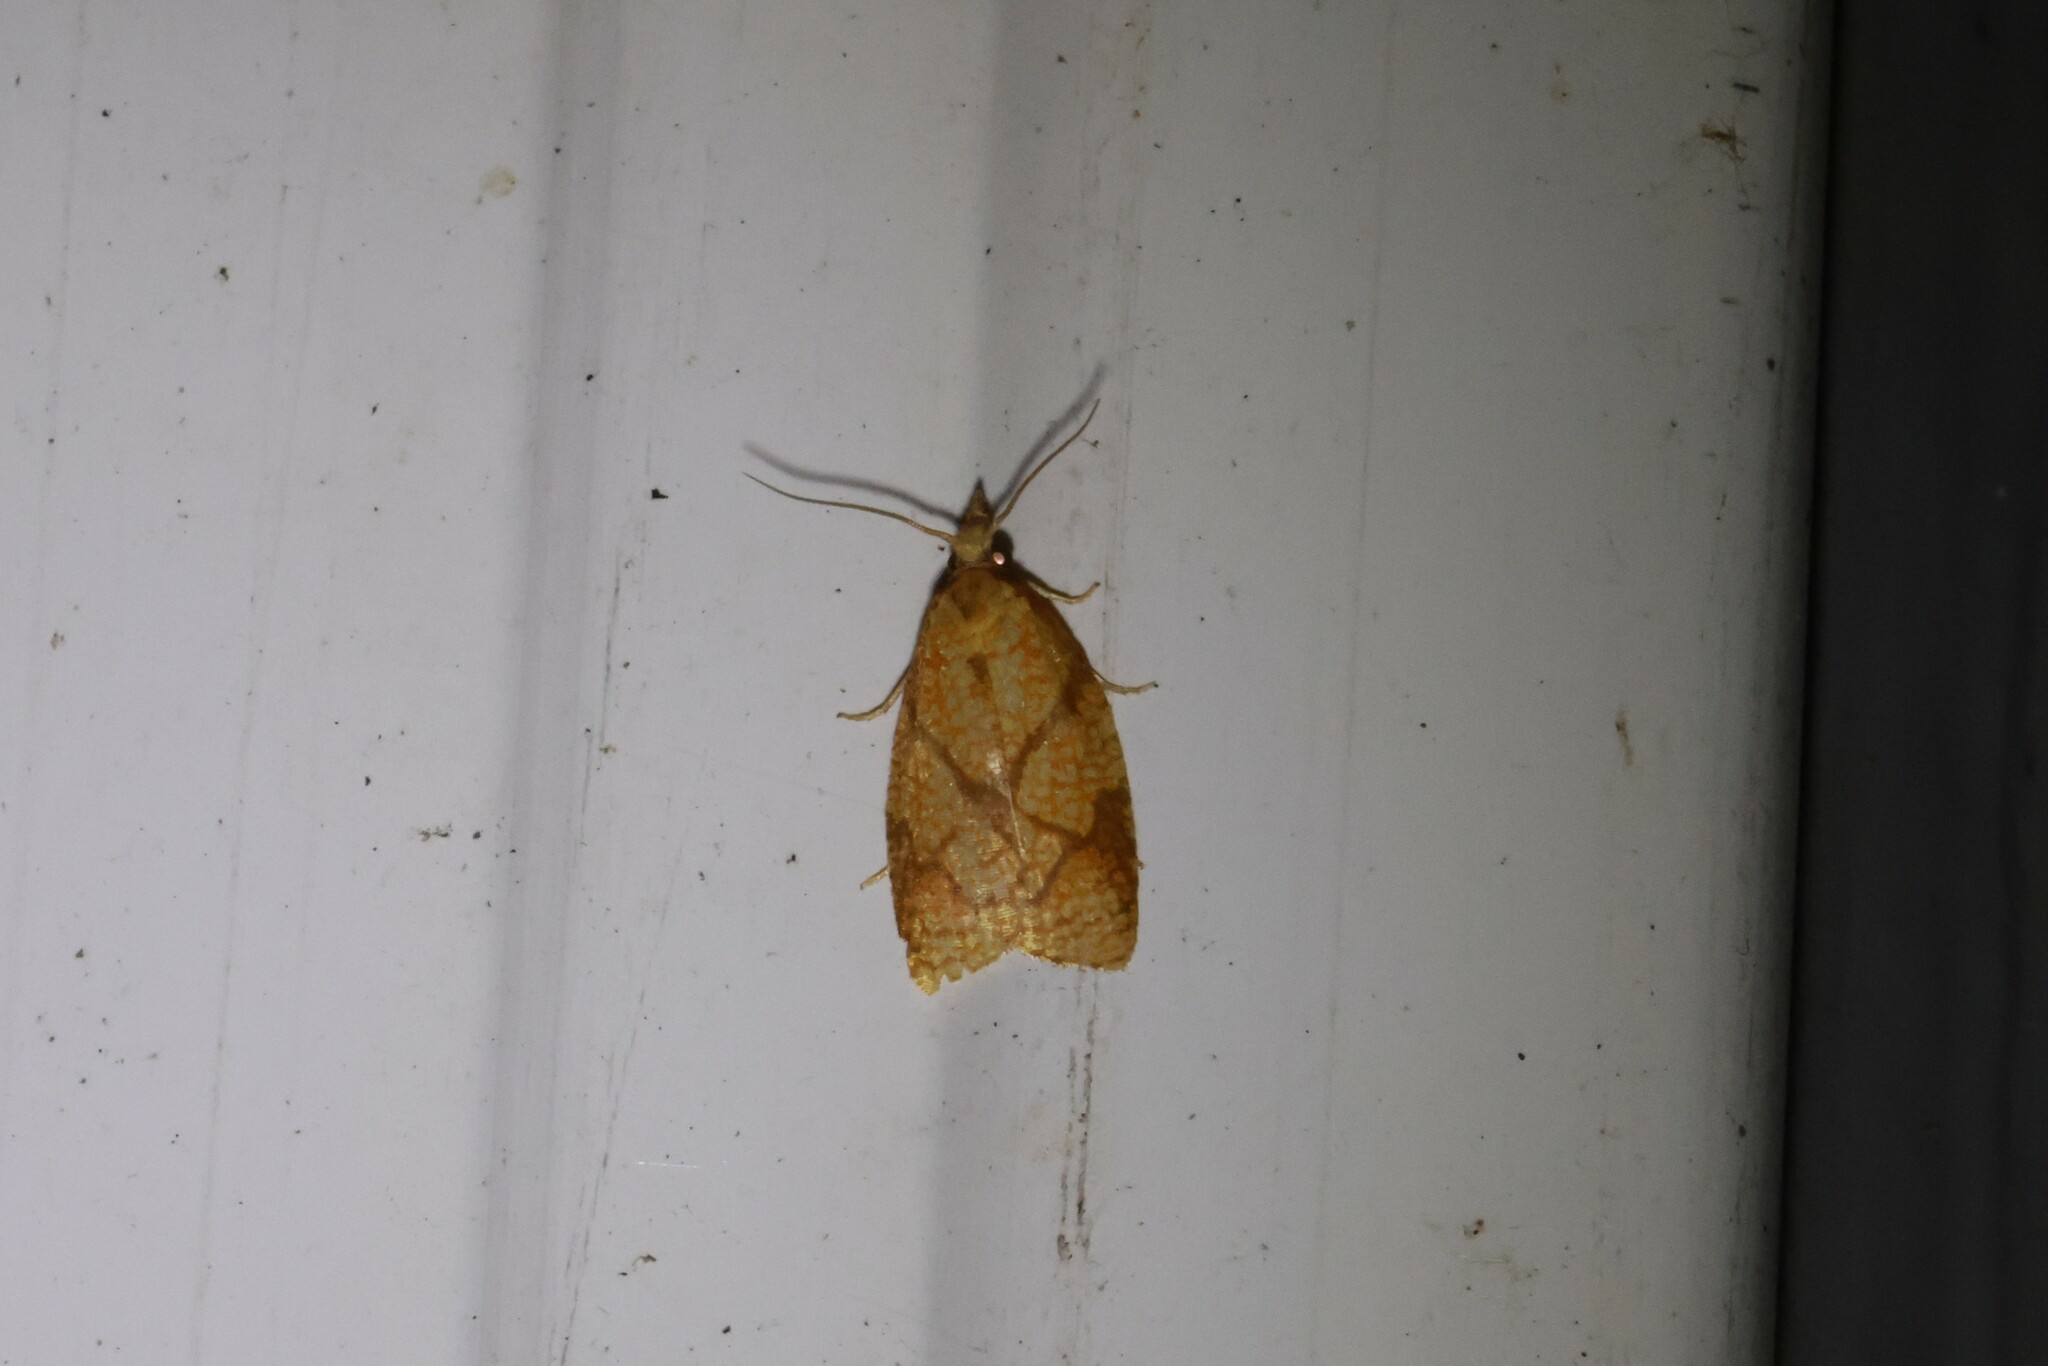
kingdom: Animalia
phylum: Arthropoda
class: Insecta
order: Lepidoptera
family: Tortricidae
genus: Cenopis
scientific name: Cenopis reticulatana
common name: Reticulated fruitworm moth
